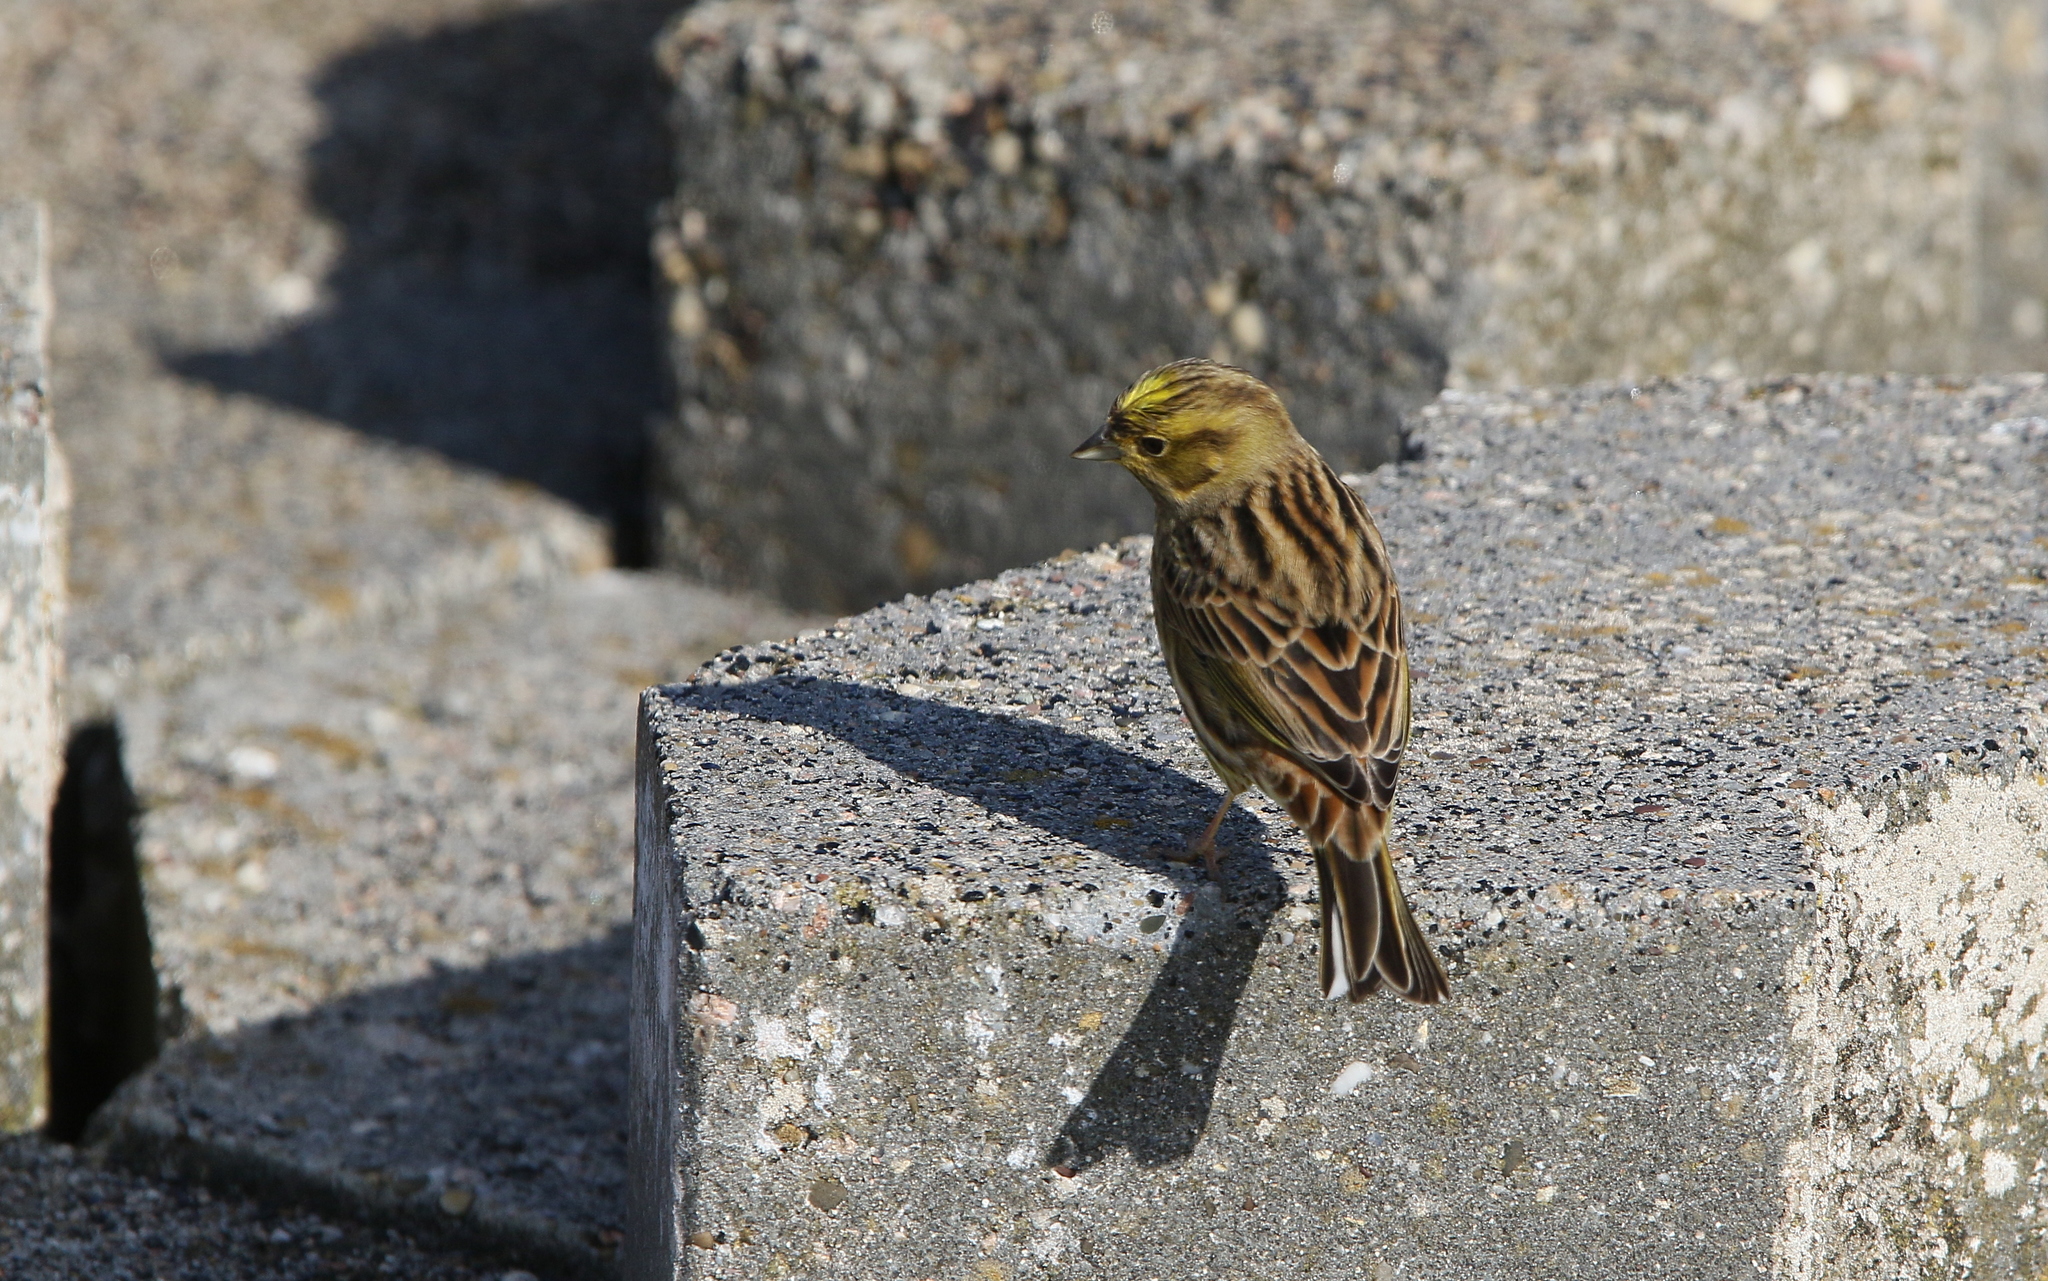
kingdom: Animalia
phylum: Chordata
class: Aves
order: Passeriformes
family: Emberizidae
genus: Emberiza
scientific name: Emberiza citrinella
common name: Yellowhammer
